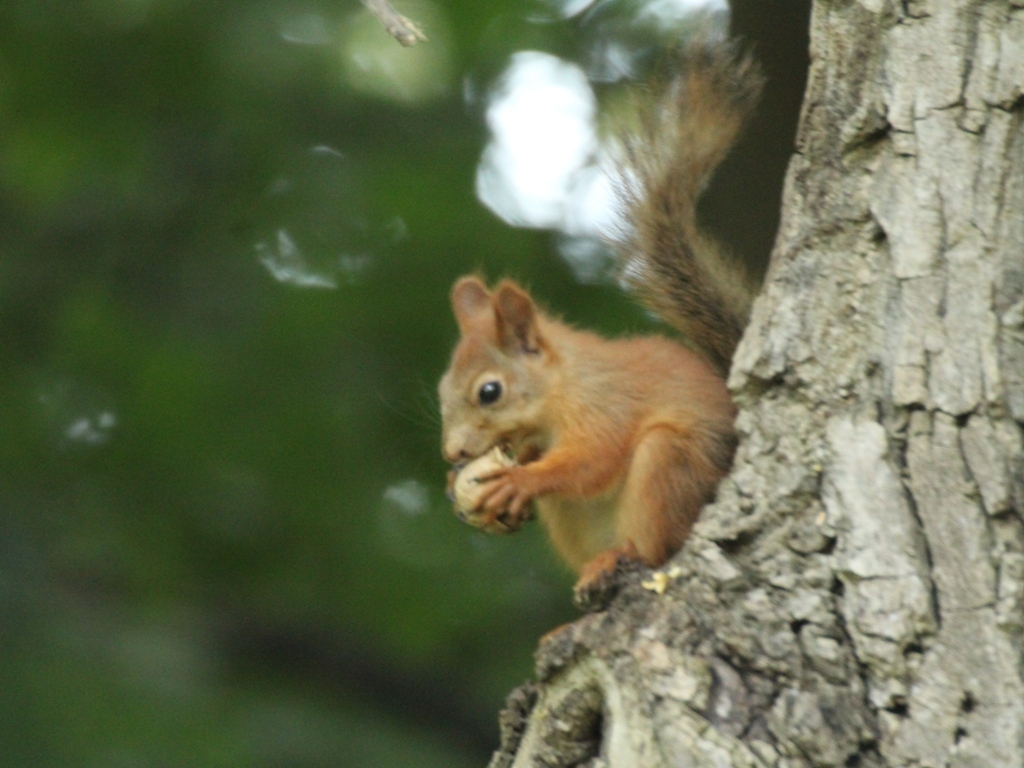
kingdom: Animalia
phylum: Chordata
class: Mammalia
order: Rodentia
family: Sciuridae
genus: Sciurus
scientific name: Sciurus vulgaris
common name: Eurasian red squirrel
